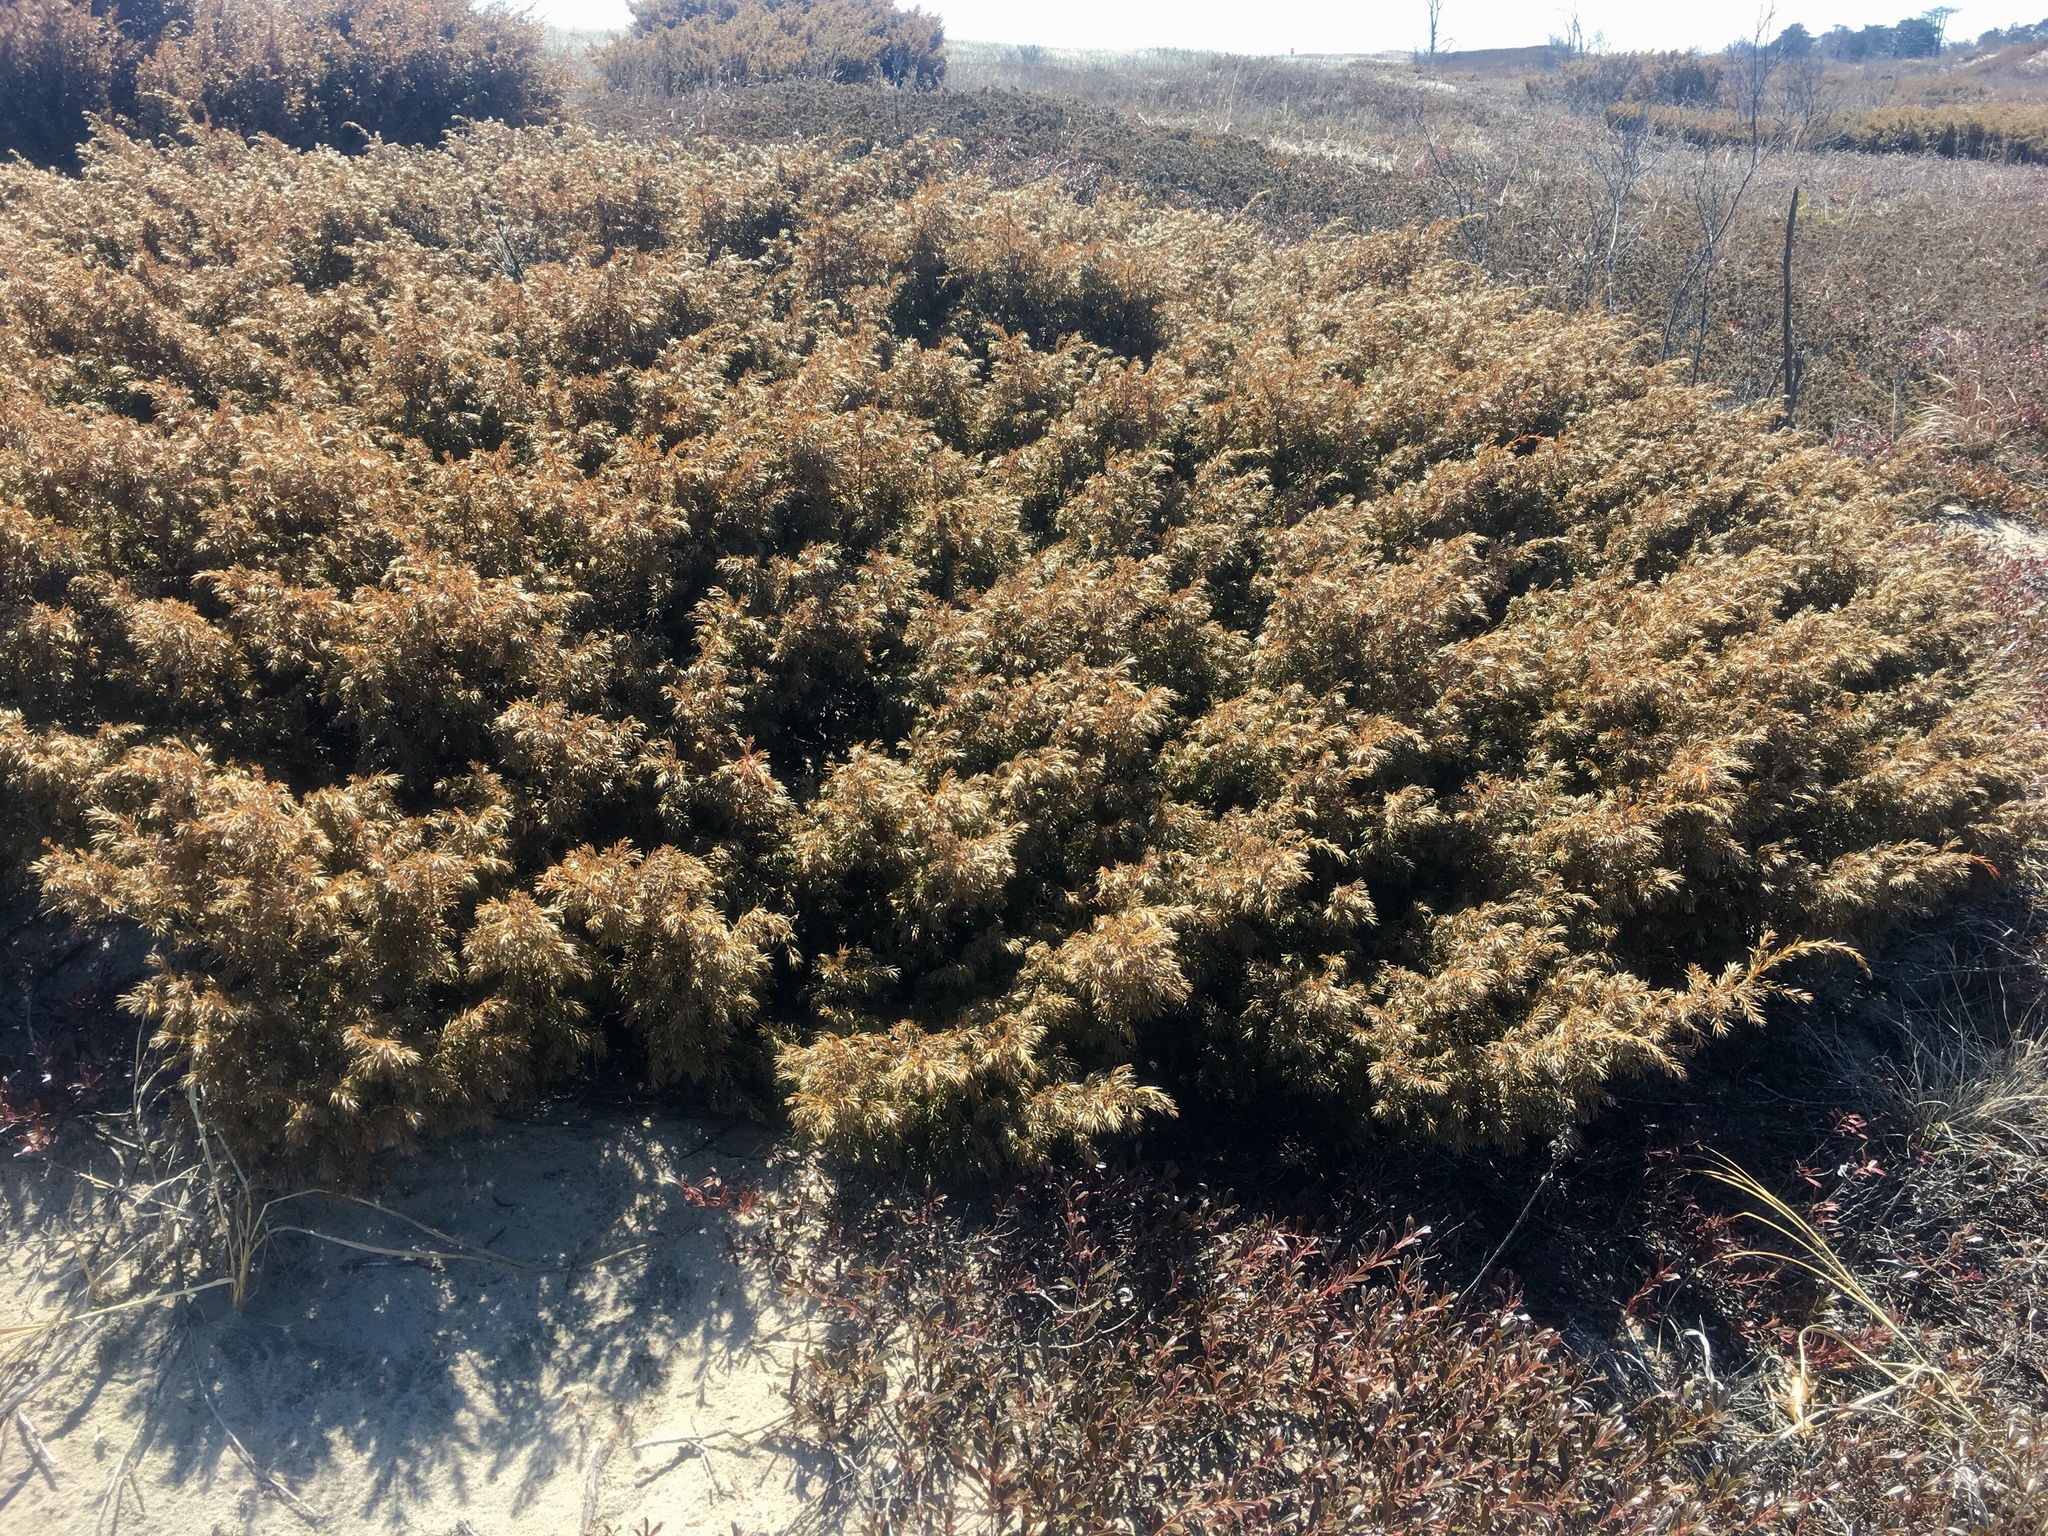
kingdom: Plantae
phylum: Tracheophyta
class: Pinopsida
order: Pinales
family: Cupressaceae
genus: Juniperus
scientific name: Juniperus communis
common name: Common juniper
